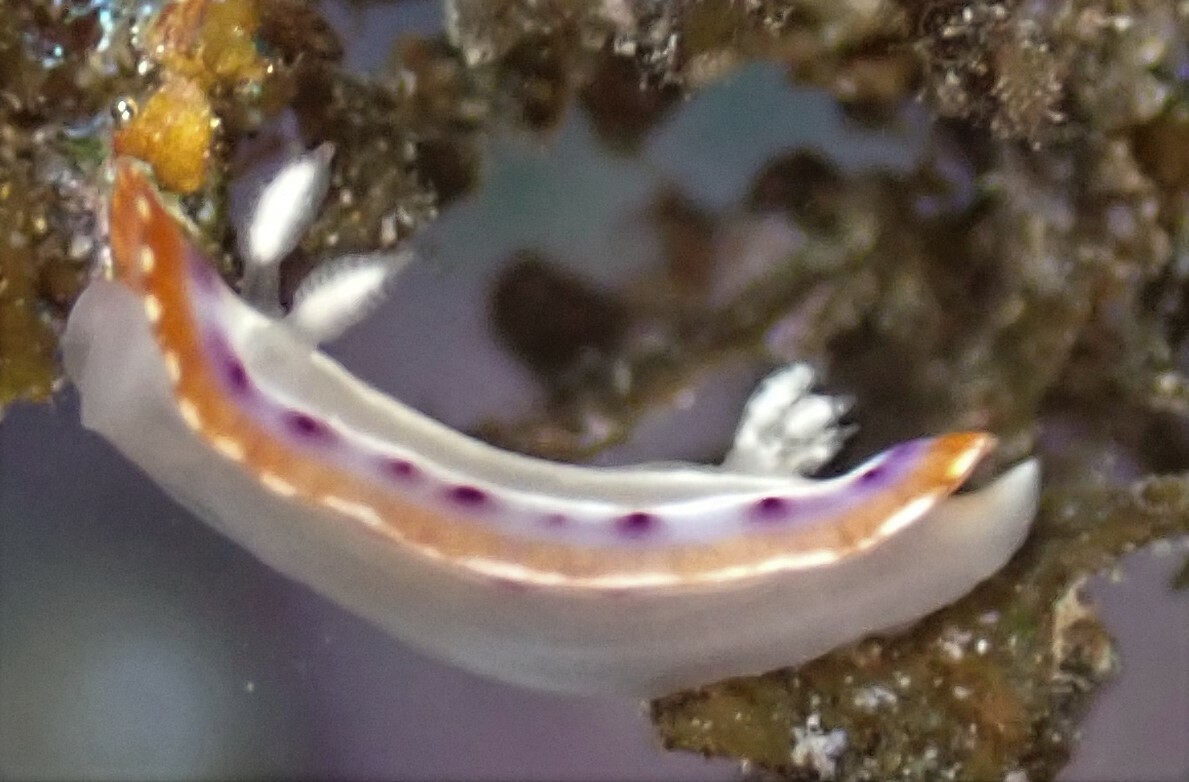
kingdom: Animalia
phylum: Mollusca
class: Gastropoda
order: Nudibranchia
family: Chromodorididae
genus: Goniobranchus
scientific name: Goniobranchus setoensis
